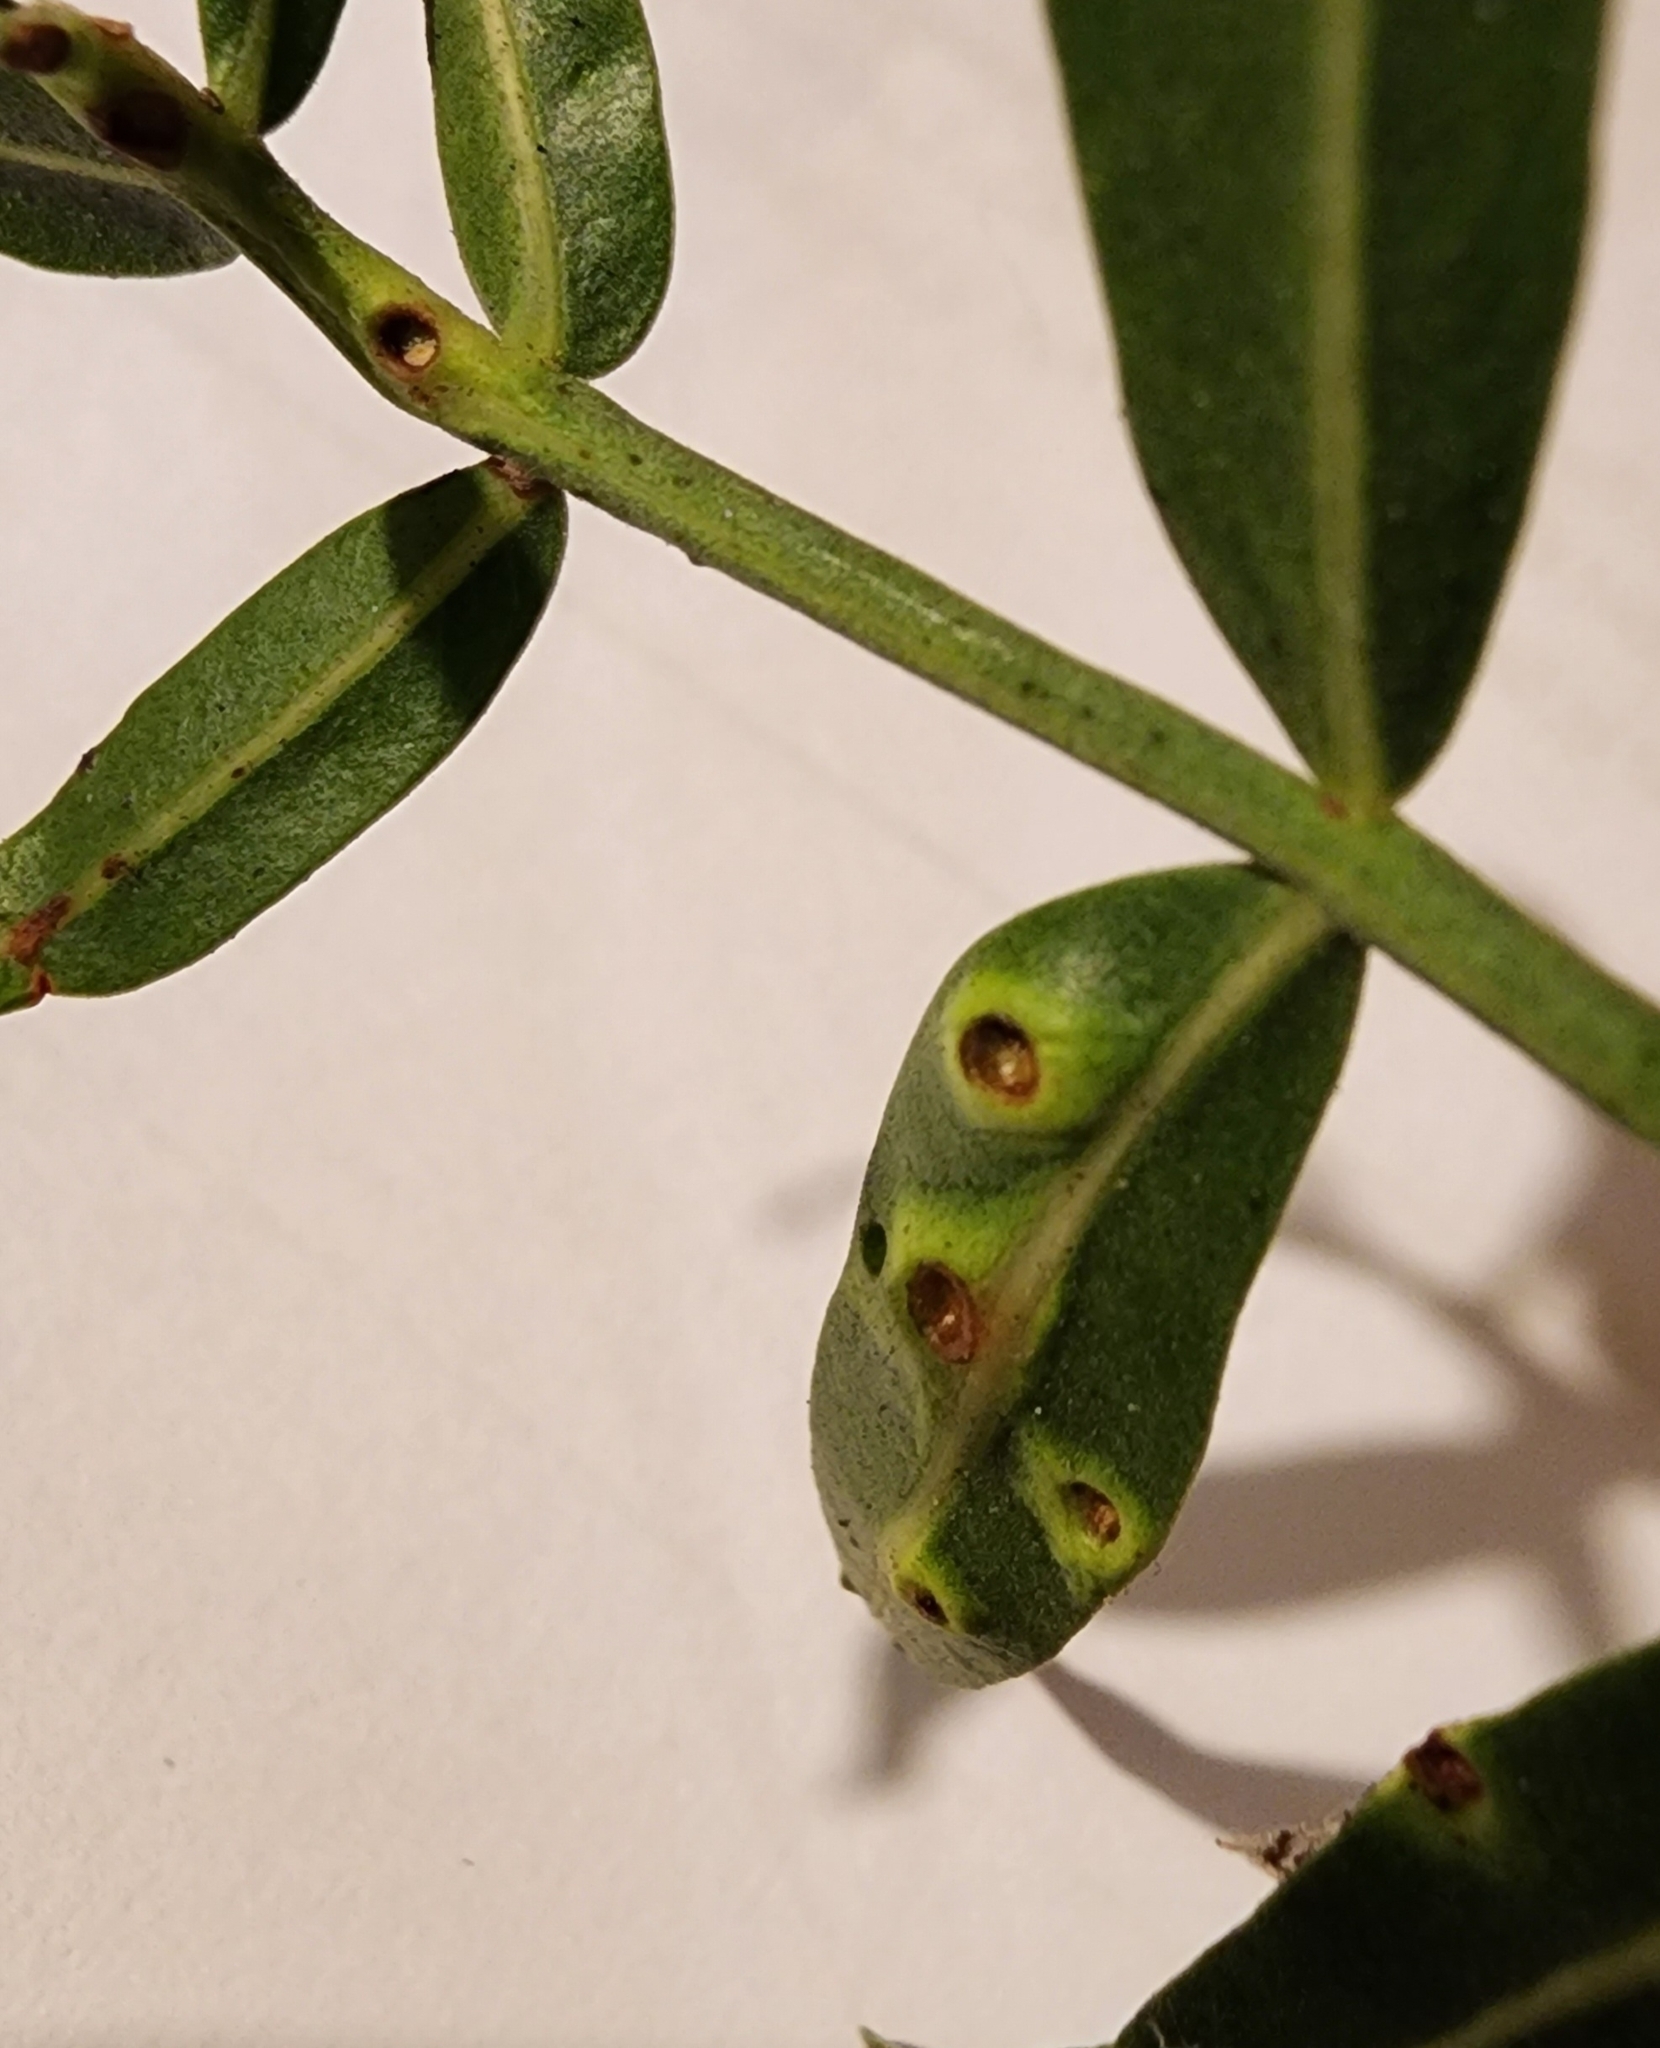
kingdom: Animalia
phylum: Arthropoda
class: Insecta
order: Hemiptera
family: Calophyidae
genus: Calophya
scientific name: Calophya schini
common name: Pepper tree psyllid
